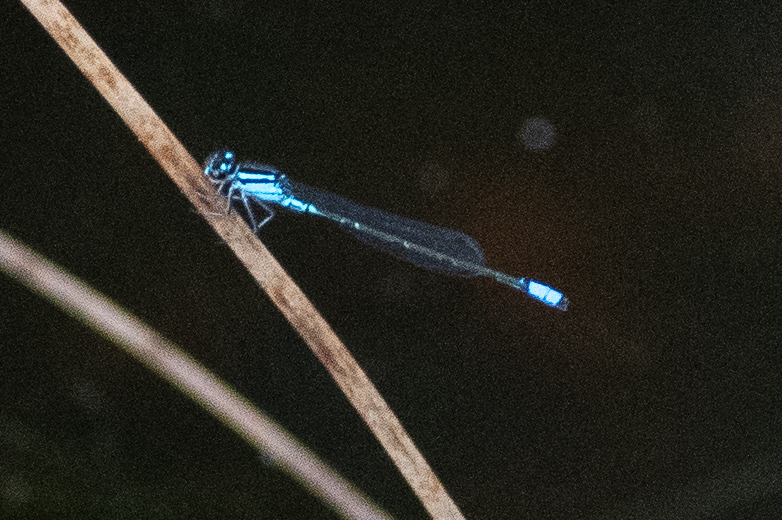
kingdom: Animalia
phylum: Arthropoda
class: Insecta
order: Odonata
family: Coenagrionidae
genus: Enallagma
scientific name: Enallagma geminatum
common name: Skimming bluet
